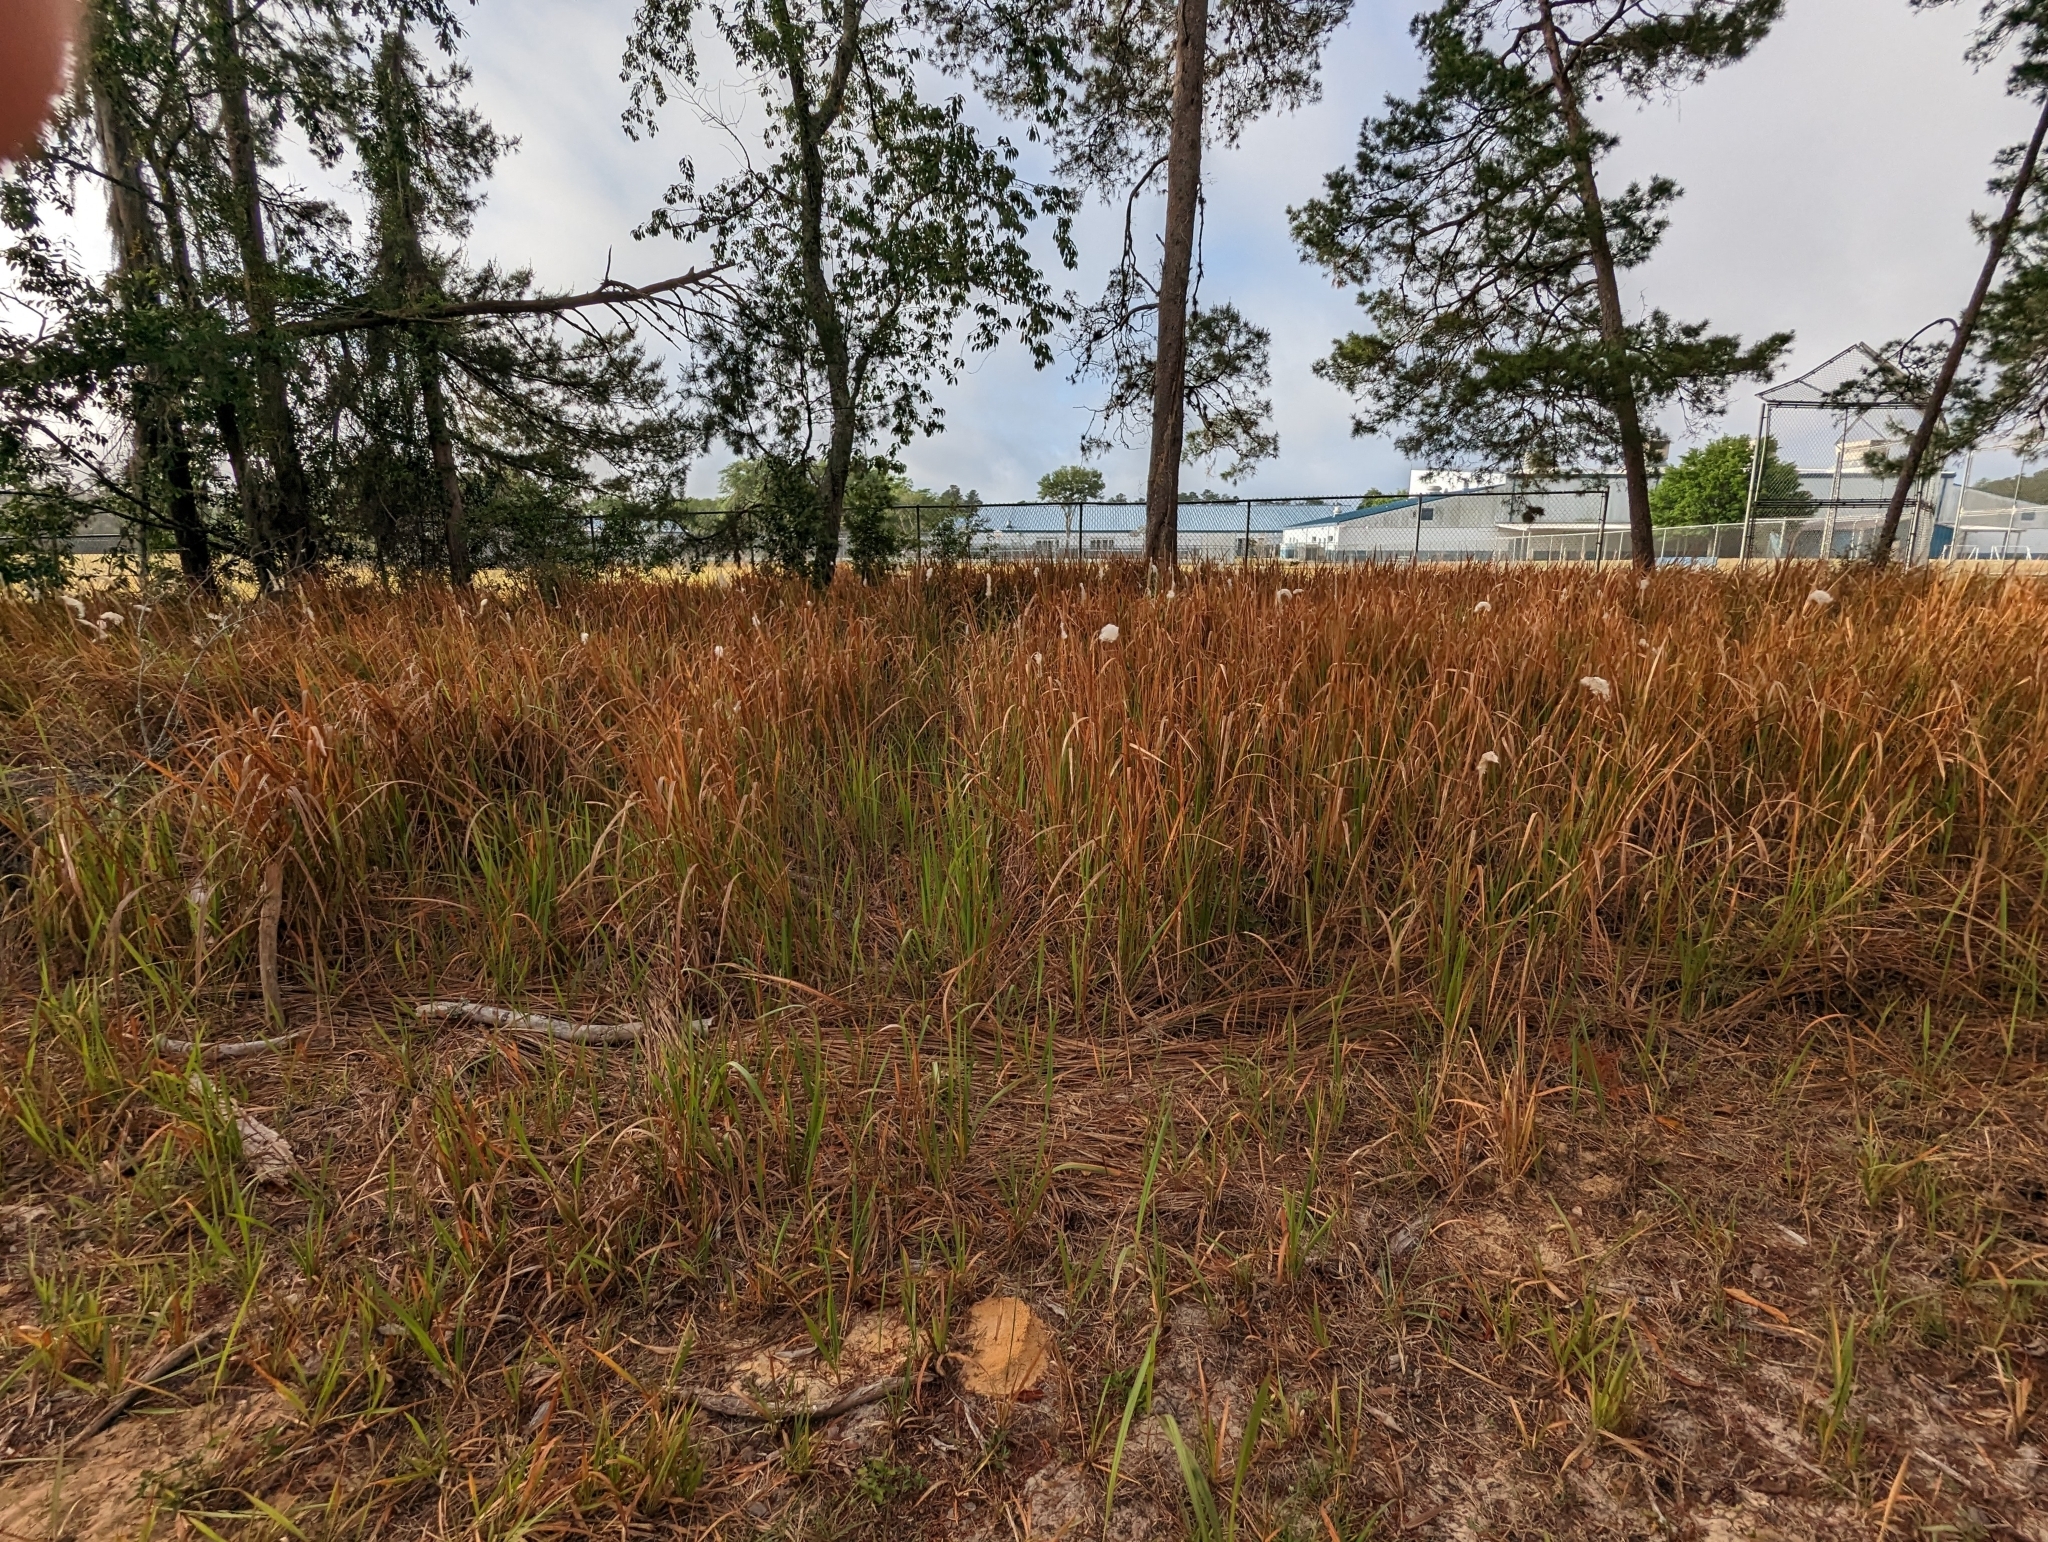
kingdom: Plantae
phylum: Tracheophyta
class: Liliopsida
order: Poales
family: Poaceae
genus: Imperata
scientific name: Imperata cylindrica
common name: Cogongrass
